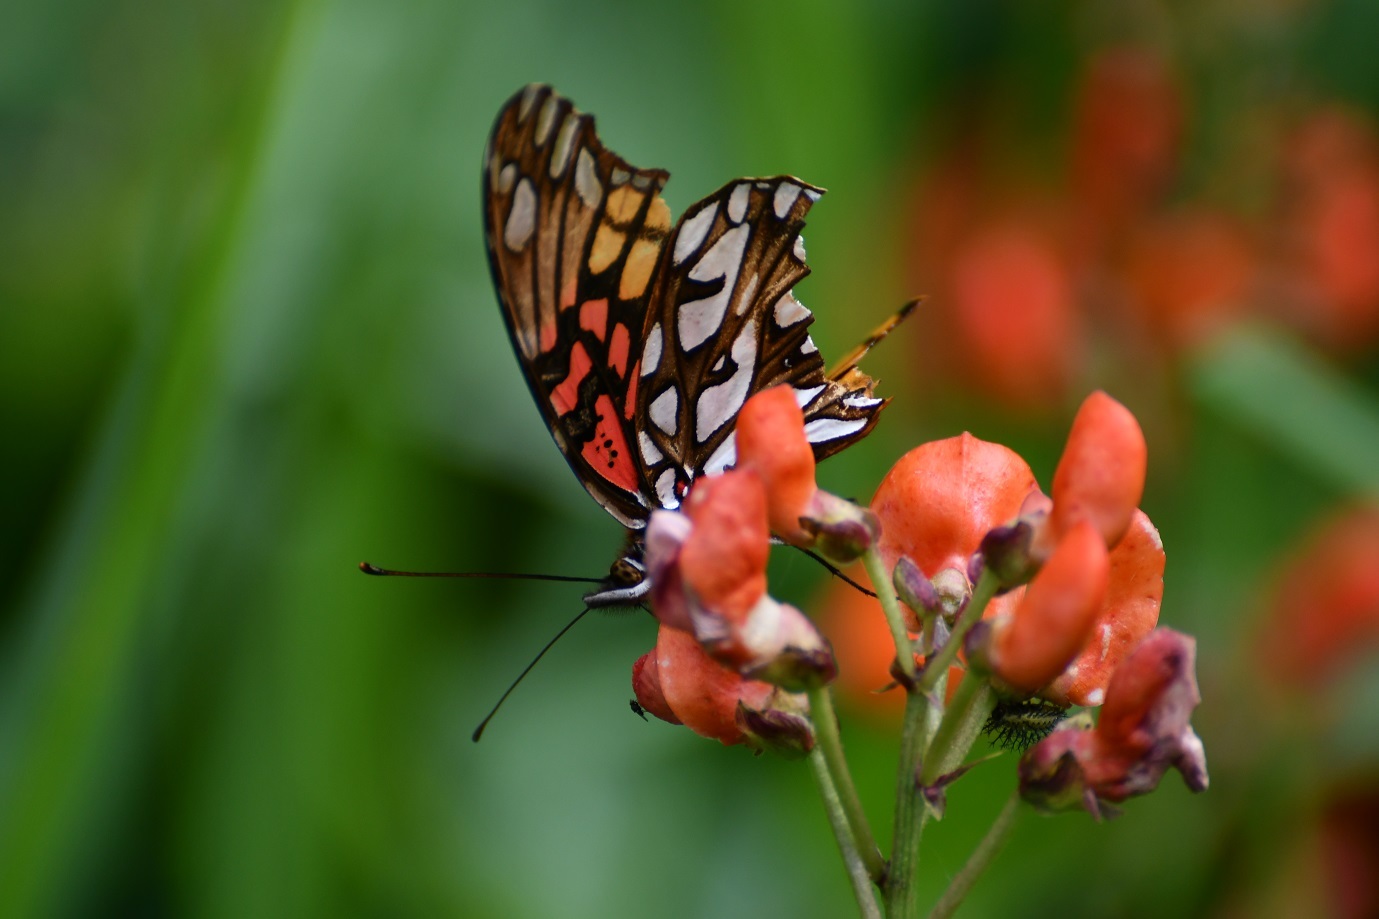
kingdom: Animalia
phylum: Arthropoda
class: Insecta
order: Lepidoptera
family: Nymphalidae
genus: Dione
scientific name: Dione moneta
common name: Mexican silverspot
